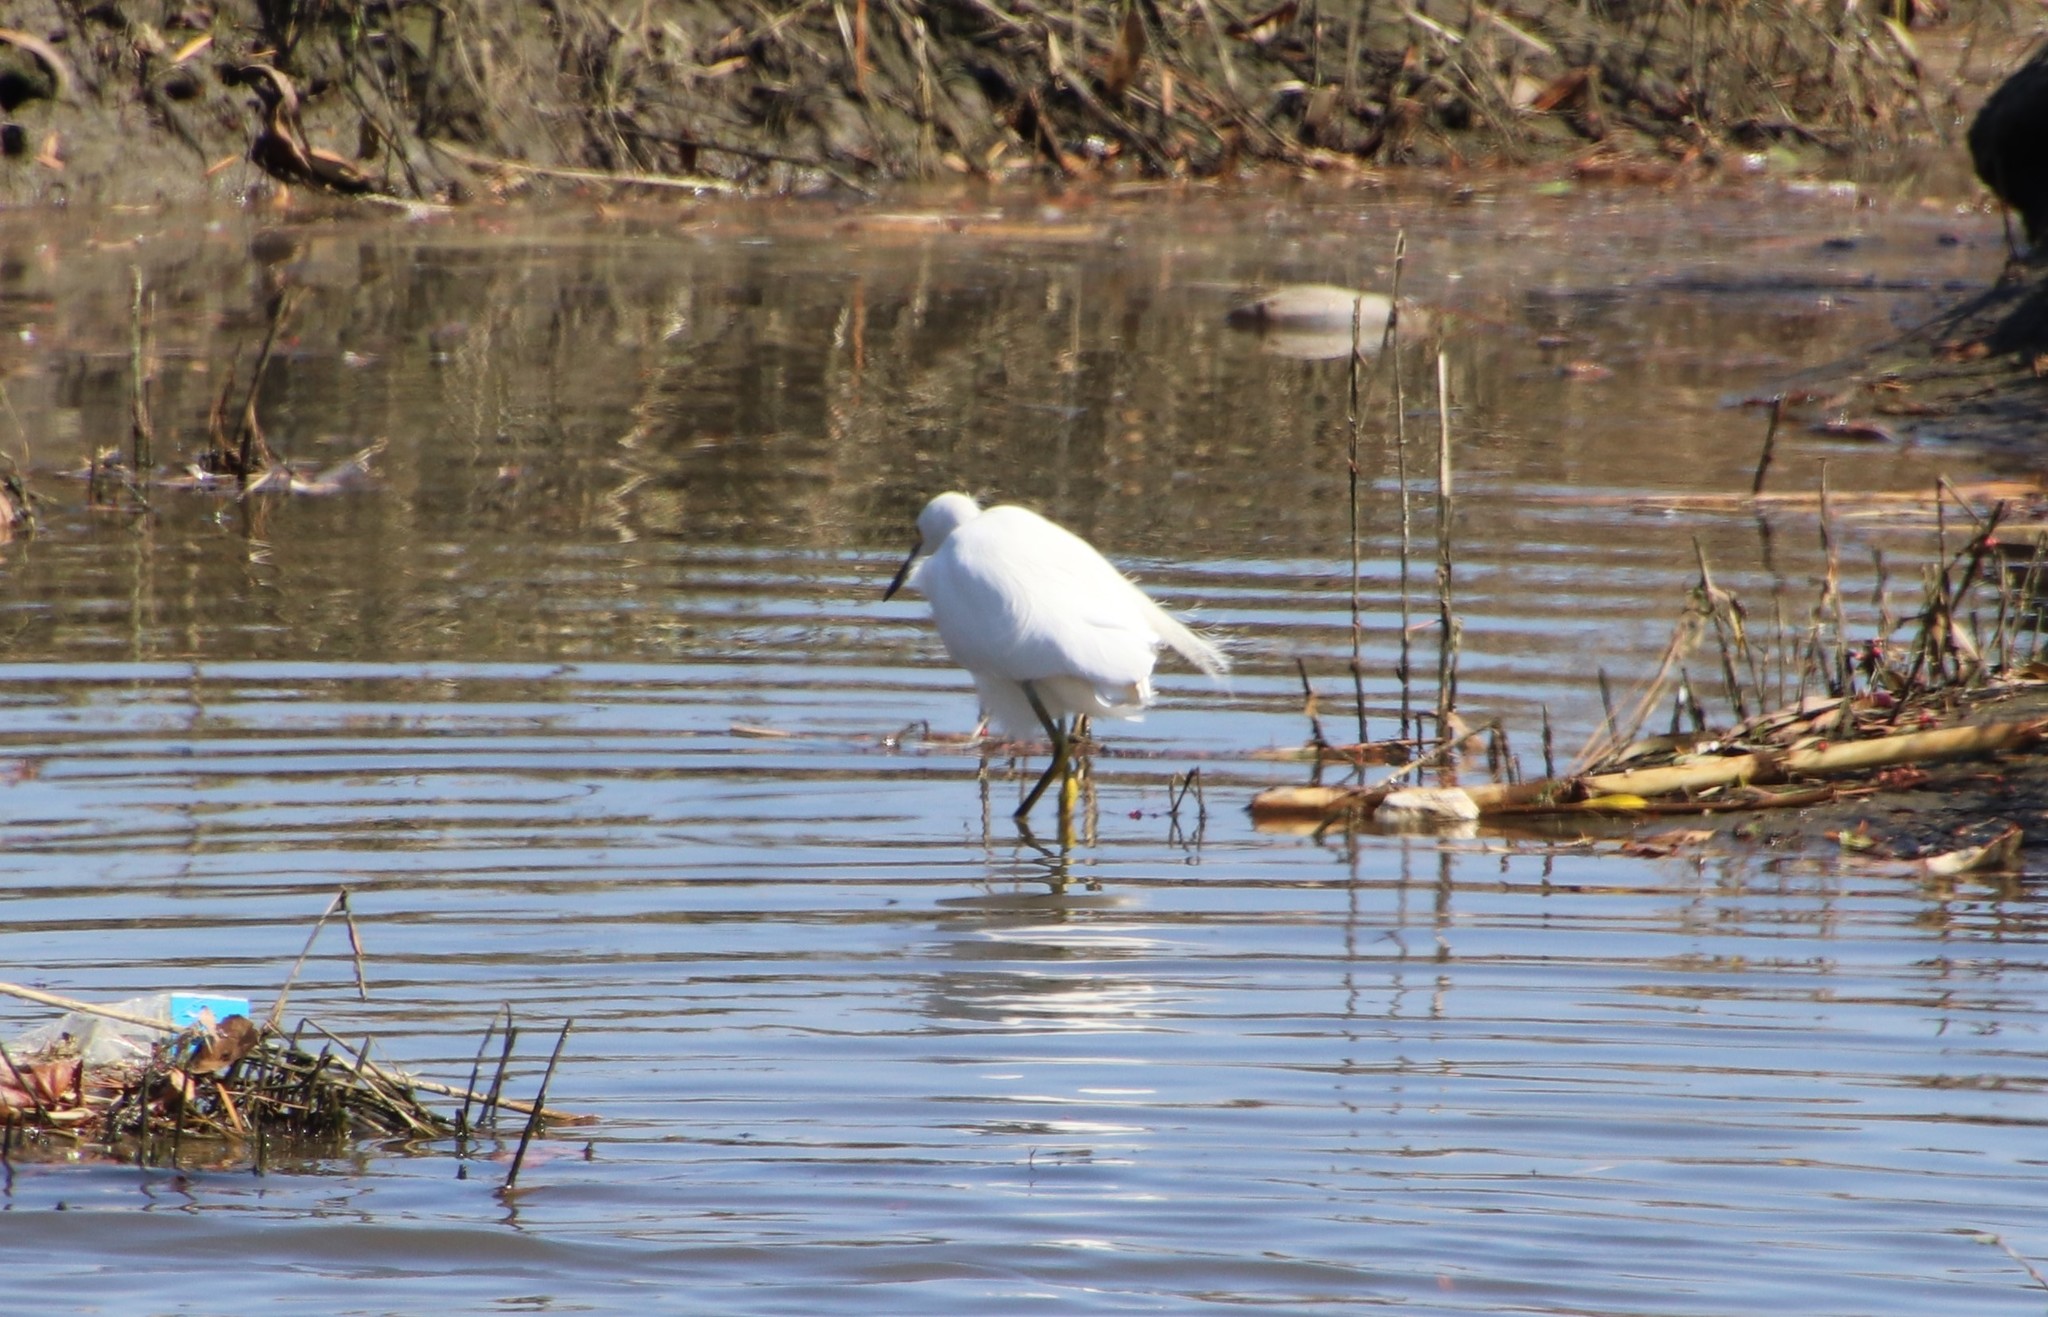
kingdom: Animalia
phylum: Chordata
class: Aves
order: Pelecaniformes
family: Ardeidae
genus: Egretta
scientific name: Egretta thula
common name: Snowy egret
